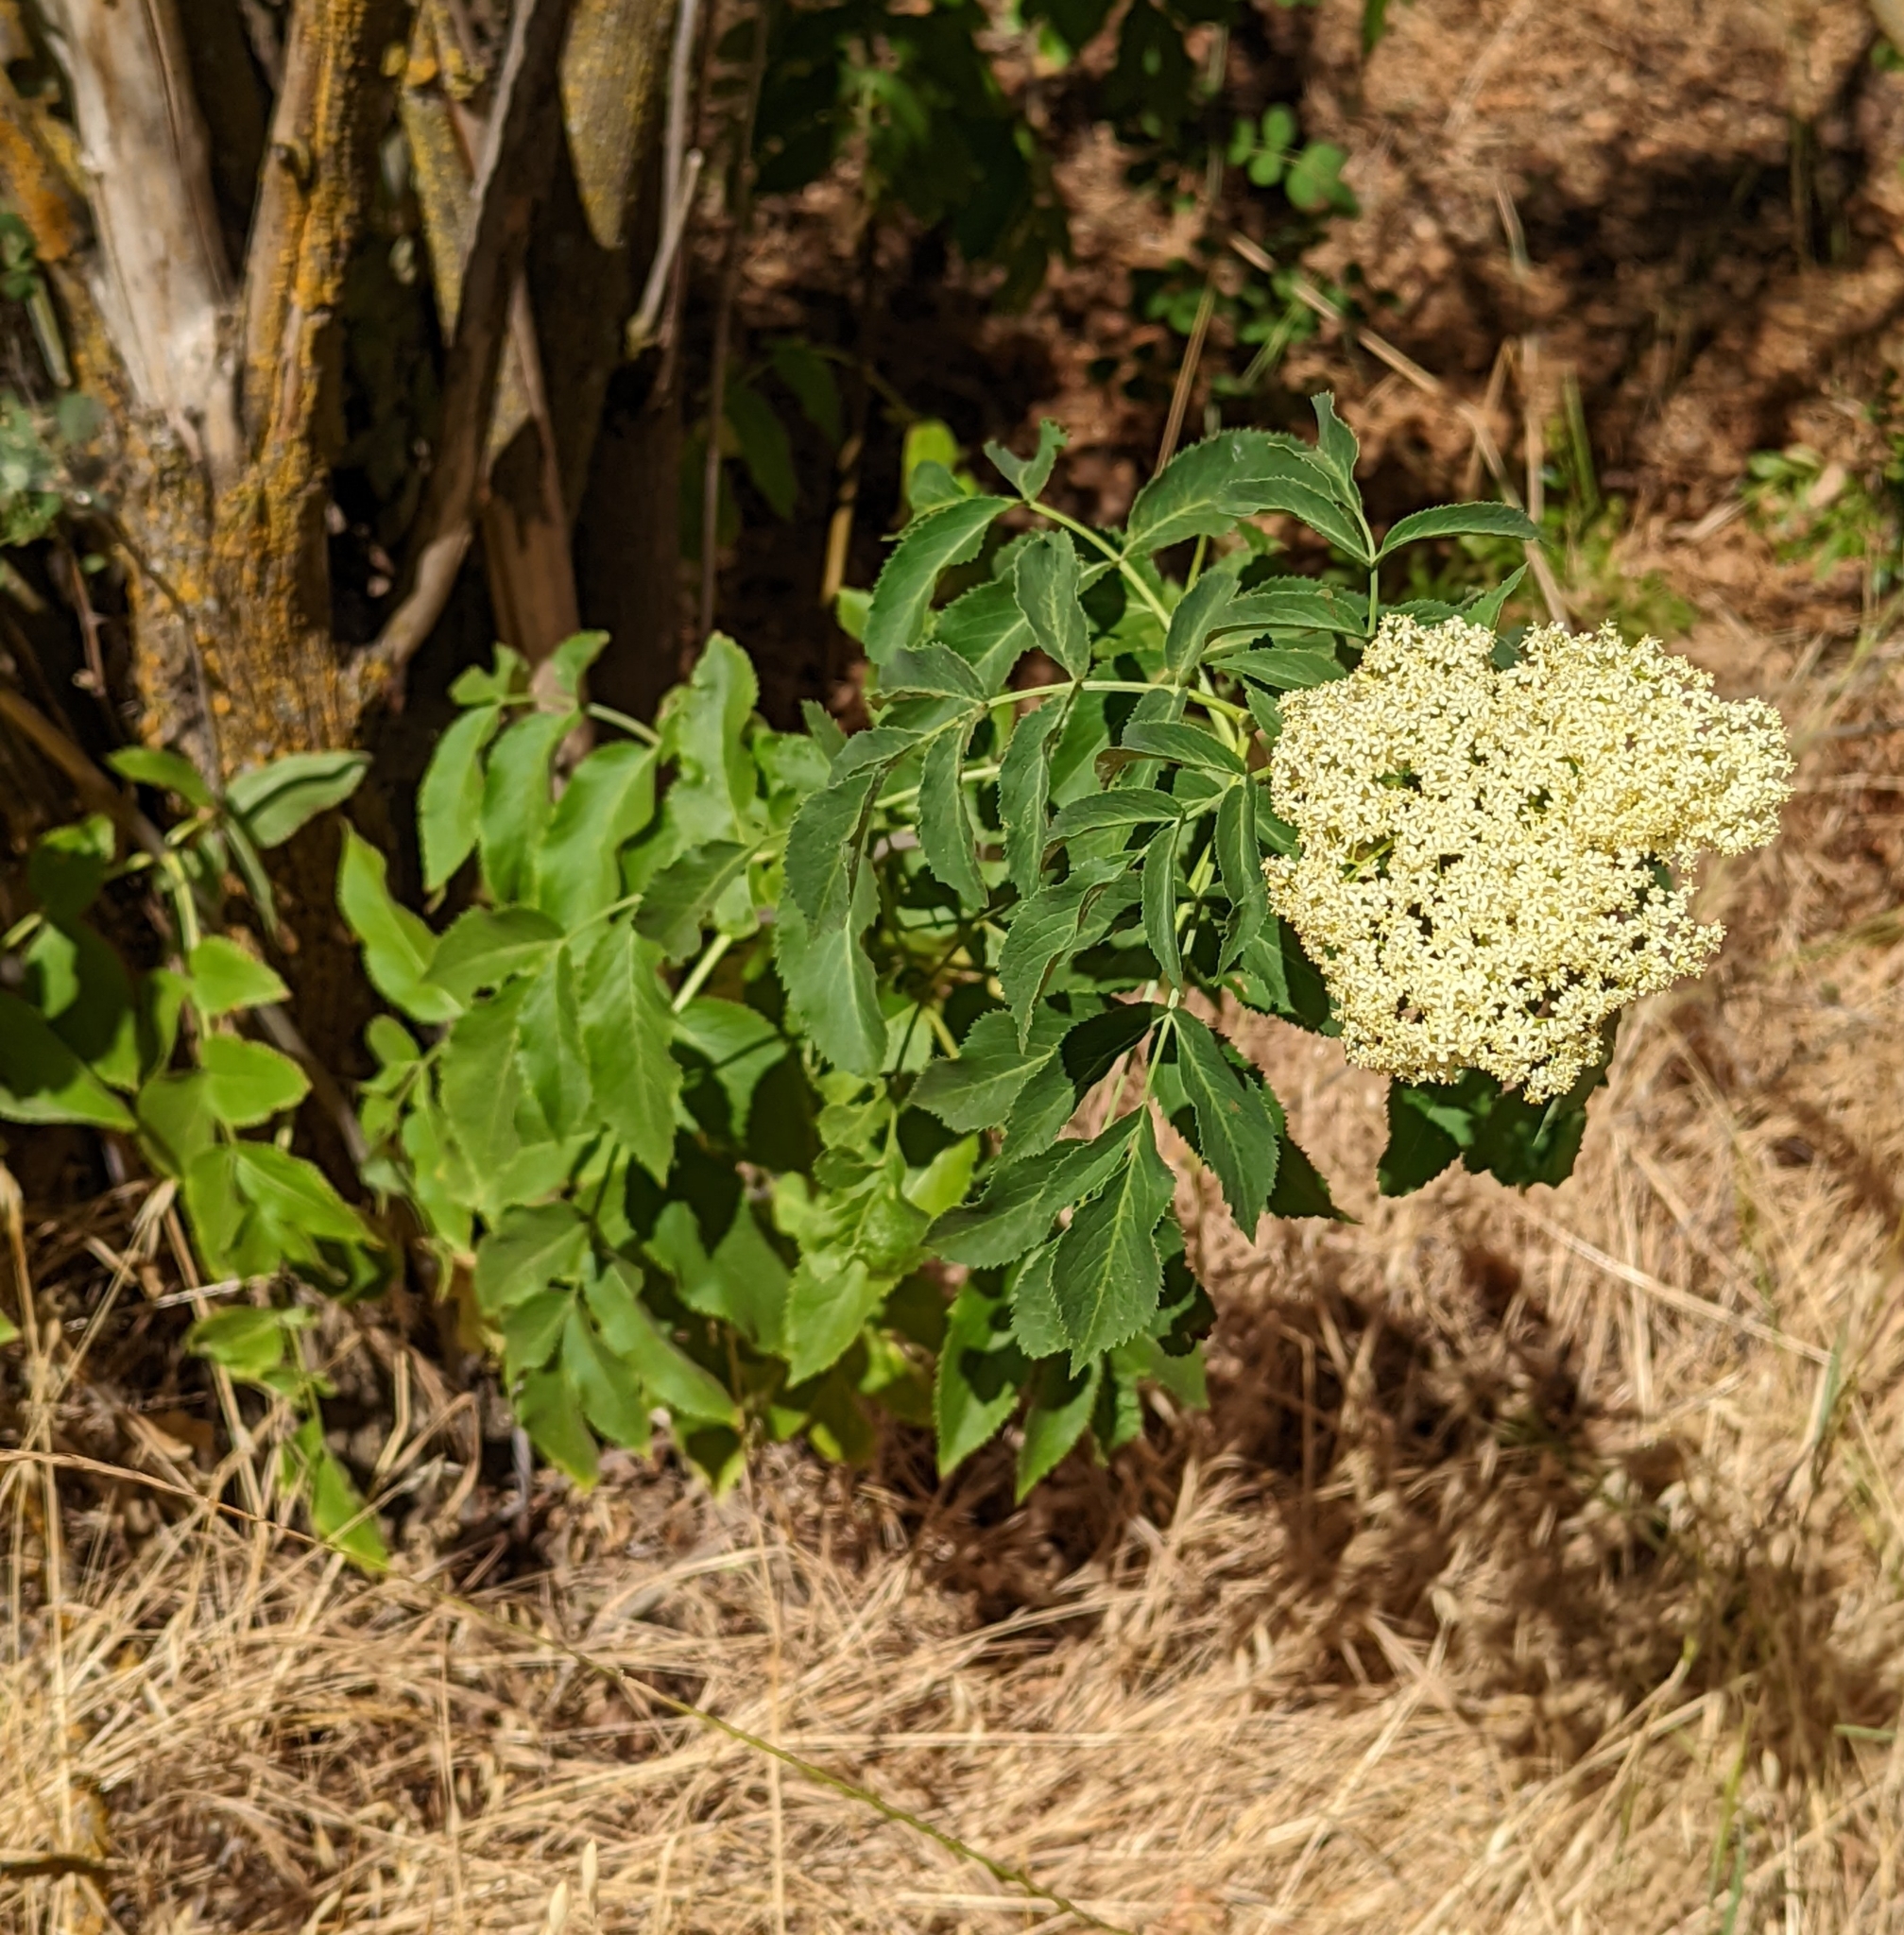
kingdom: Plantae
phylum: Tracheophyta
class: Magnoliopsida
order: Dipsacales
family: Viburnaceae
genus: Sambucus
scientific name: Sambucus cerulea
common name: Blue elder
